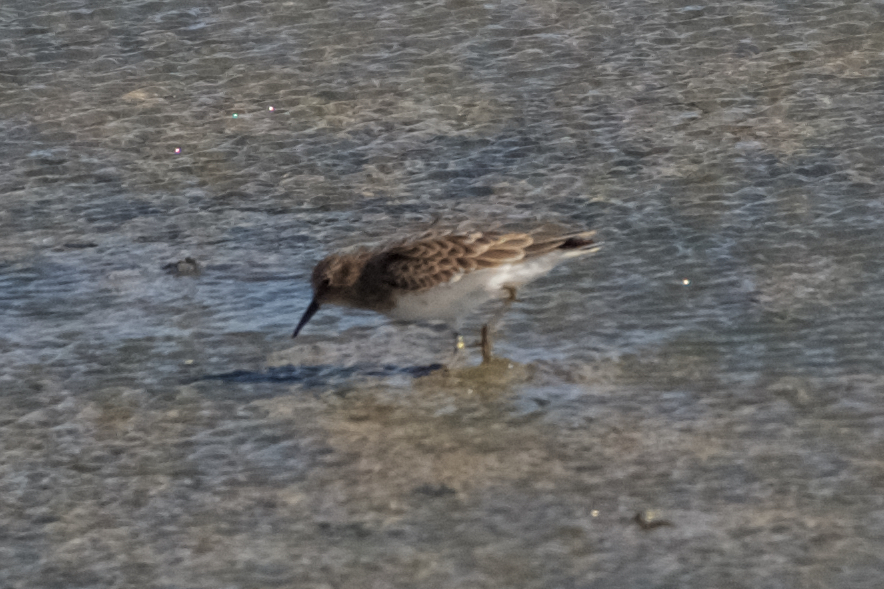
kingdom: Animalia
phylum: Chordata
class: Aves
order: Charadriiformes
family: Scolopacidae
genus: Calidris
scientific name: Calidris minutilla
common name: Least sandpiper
